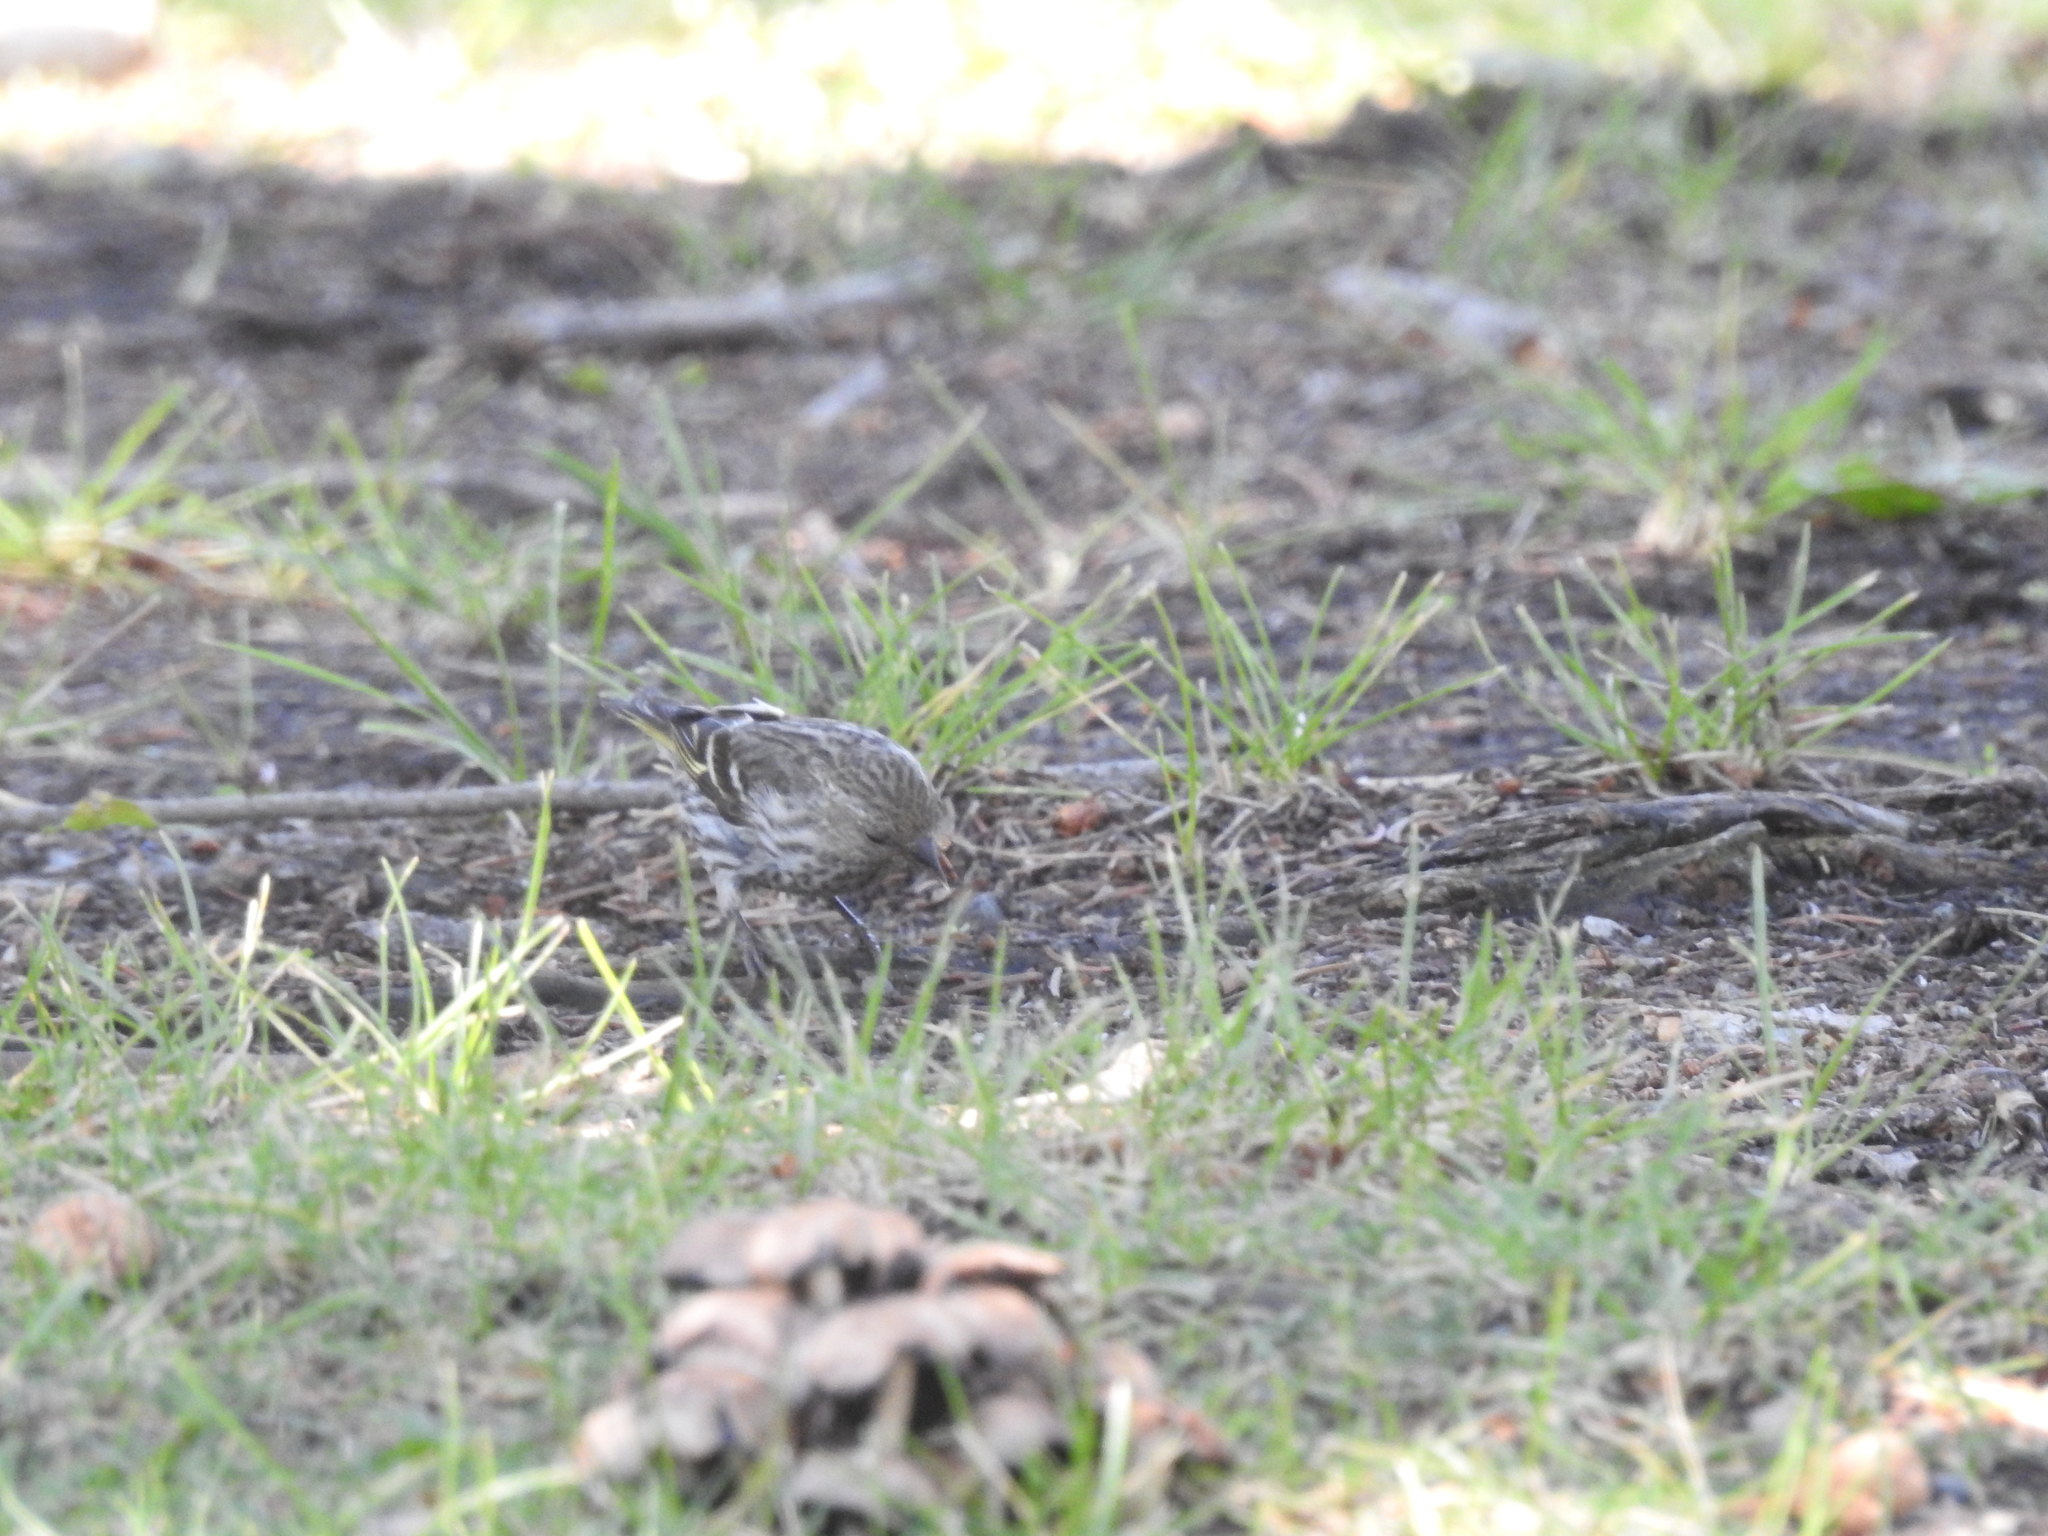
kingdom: Animalia
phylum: Chordata
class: Aves
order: Passeriformes
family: Fringillidae
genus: Spinus
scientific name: Spinus pinus
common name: Pine siskin
